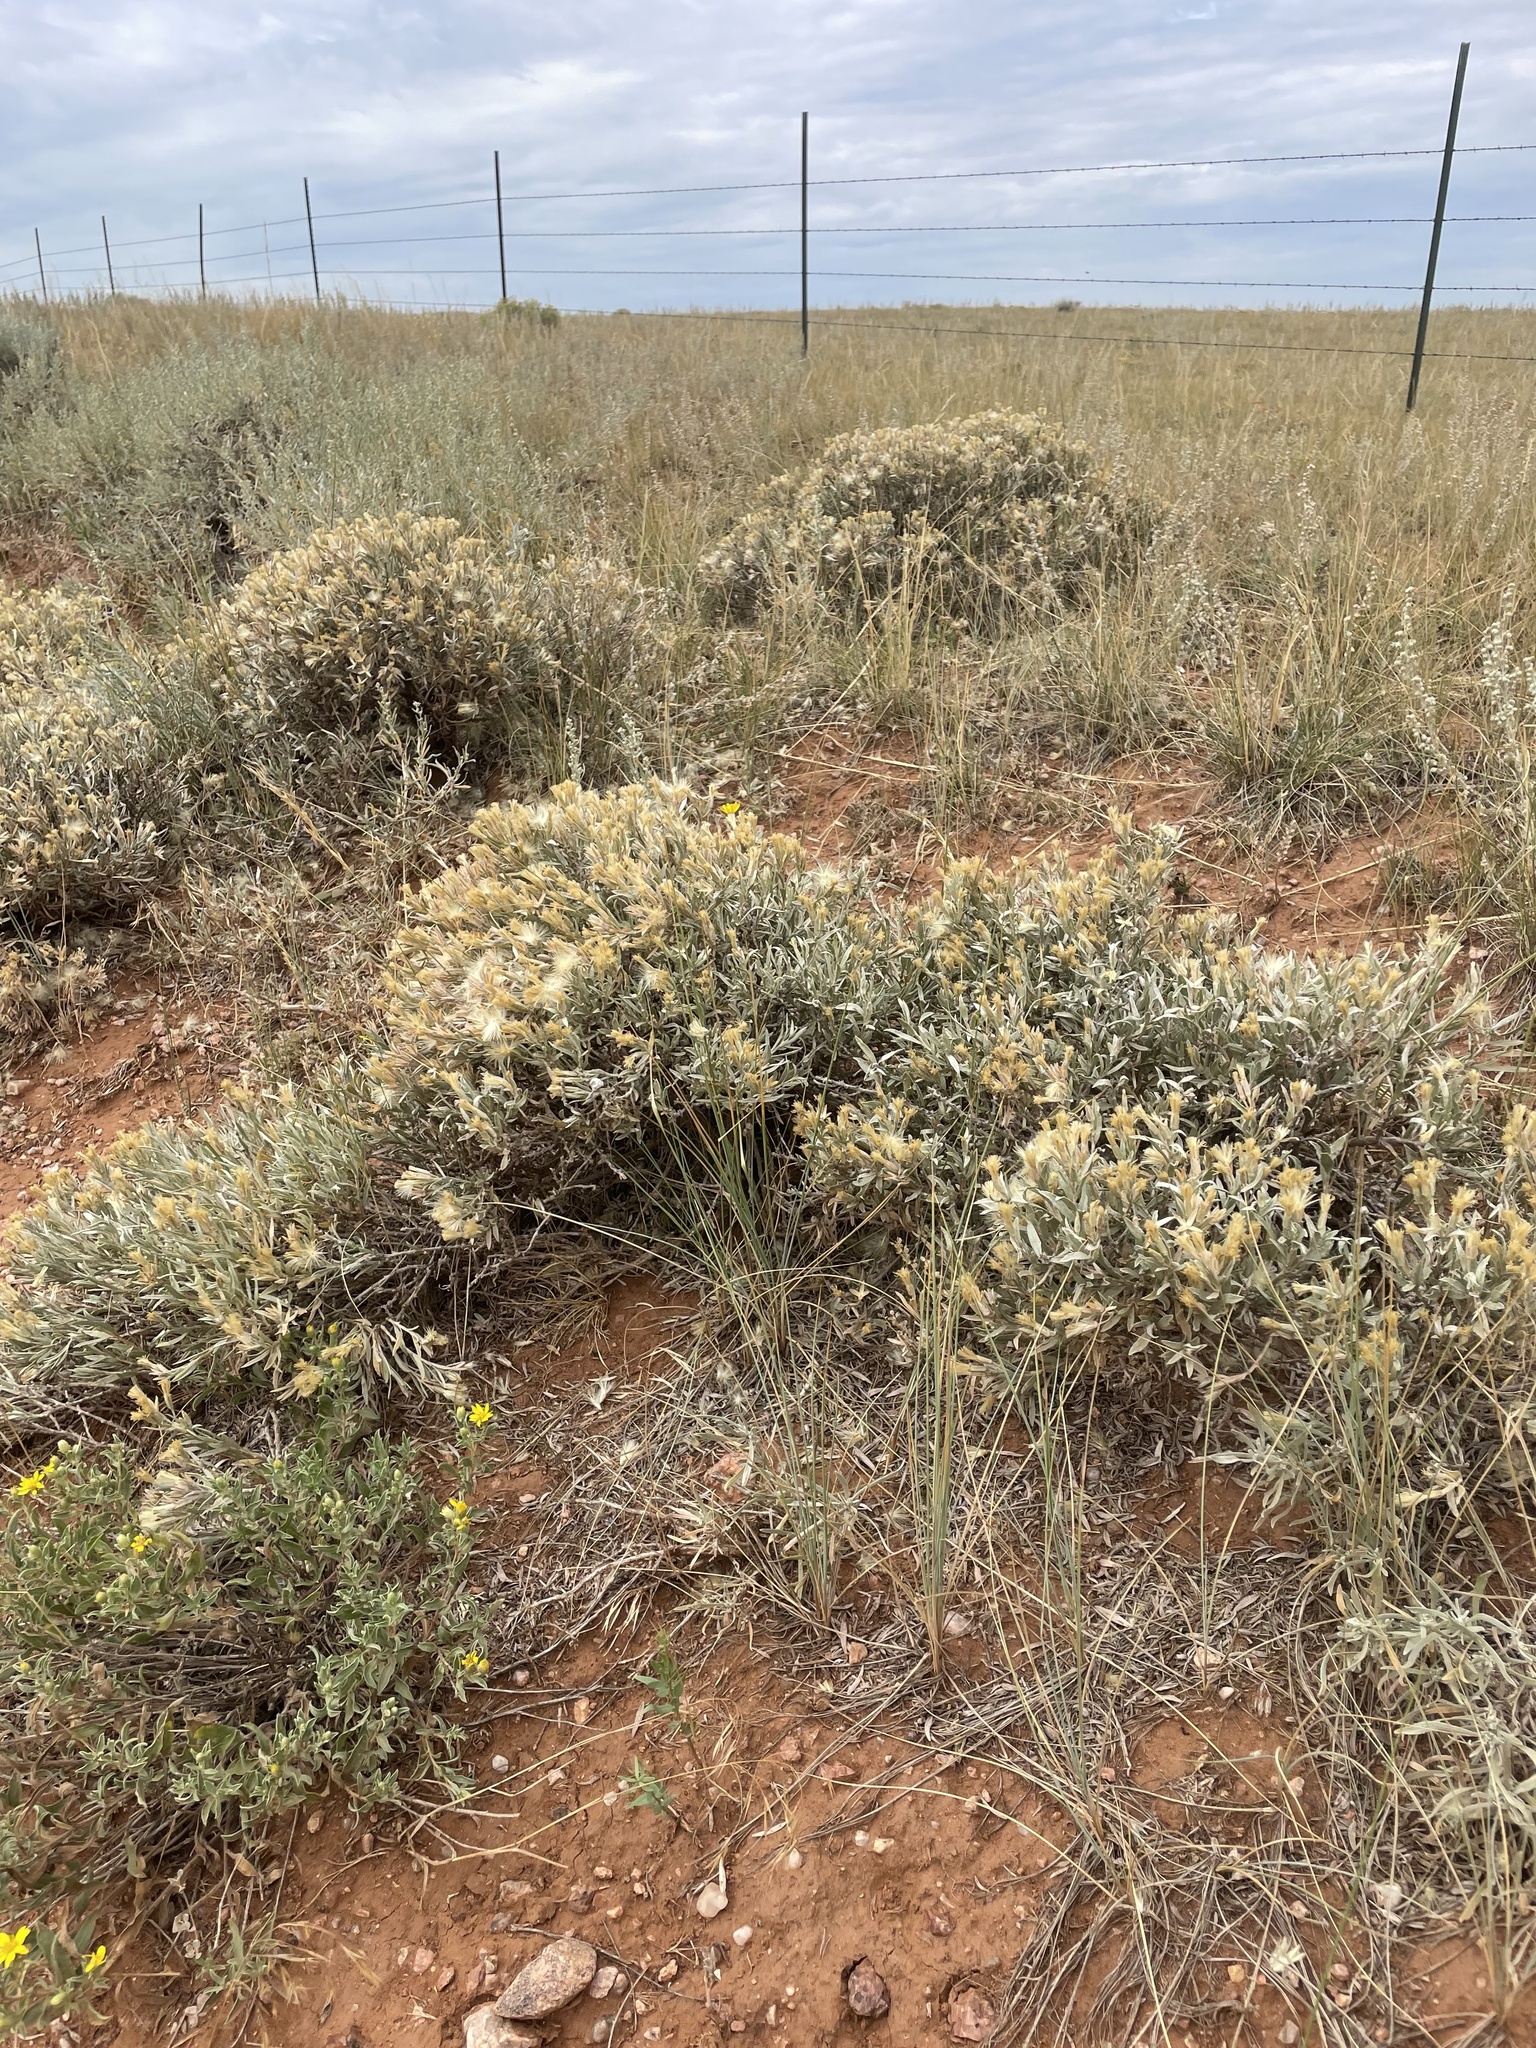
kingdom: Plantae
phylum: Tracheophyta
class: Magnoliopsida
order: Asterales
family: Asteraceae
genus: Tetradymia
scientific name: Tetradymia canescens
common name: Spineless horsebrush
